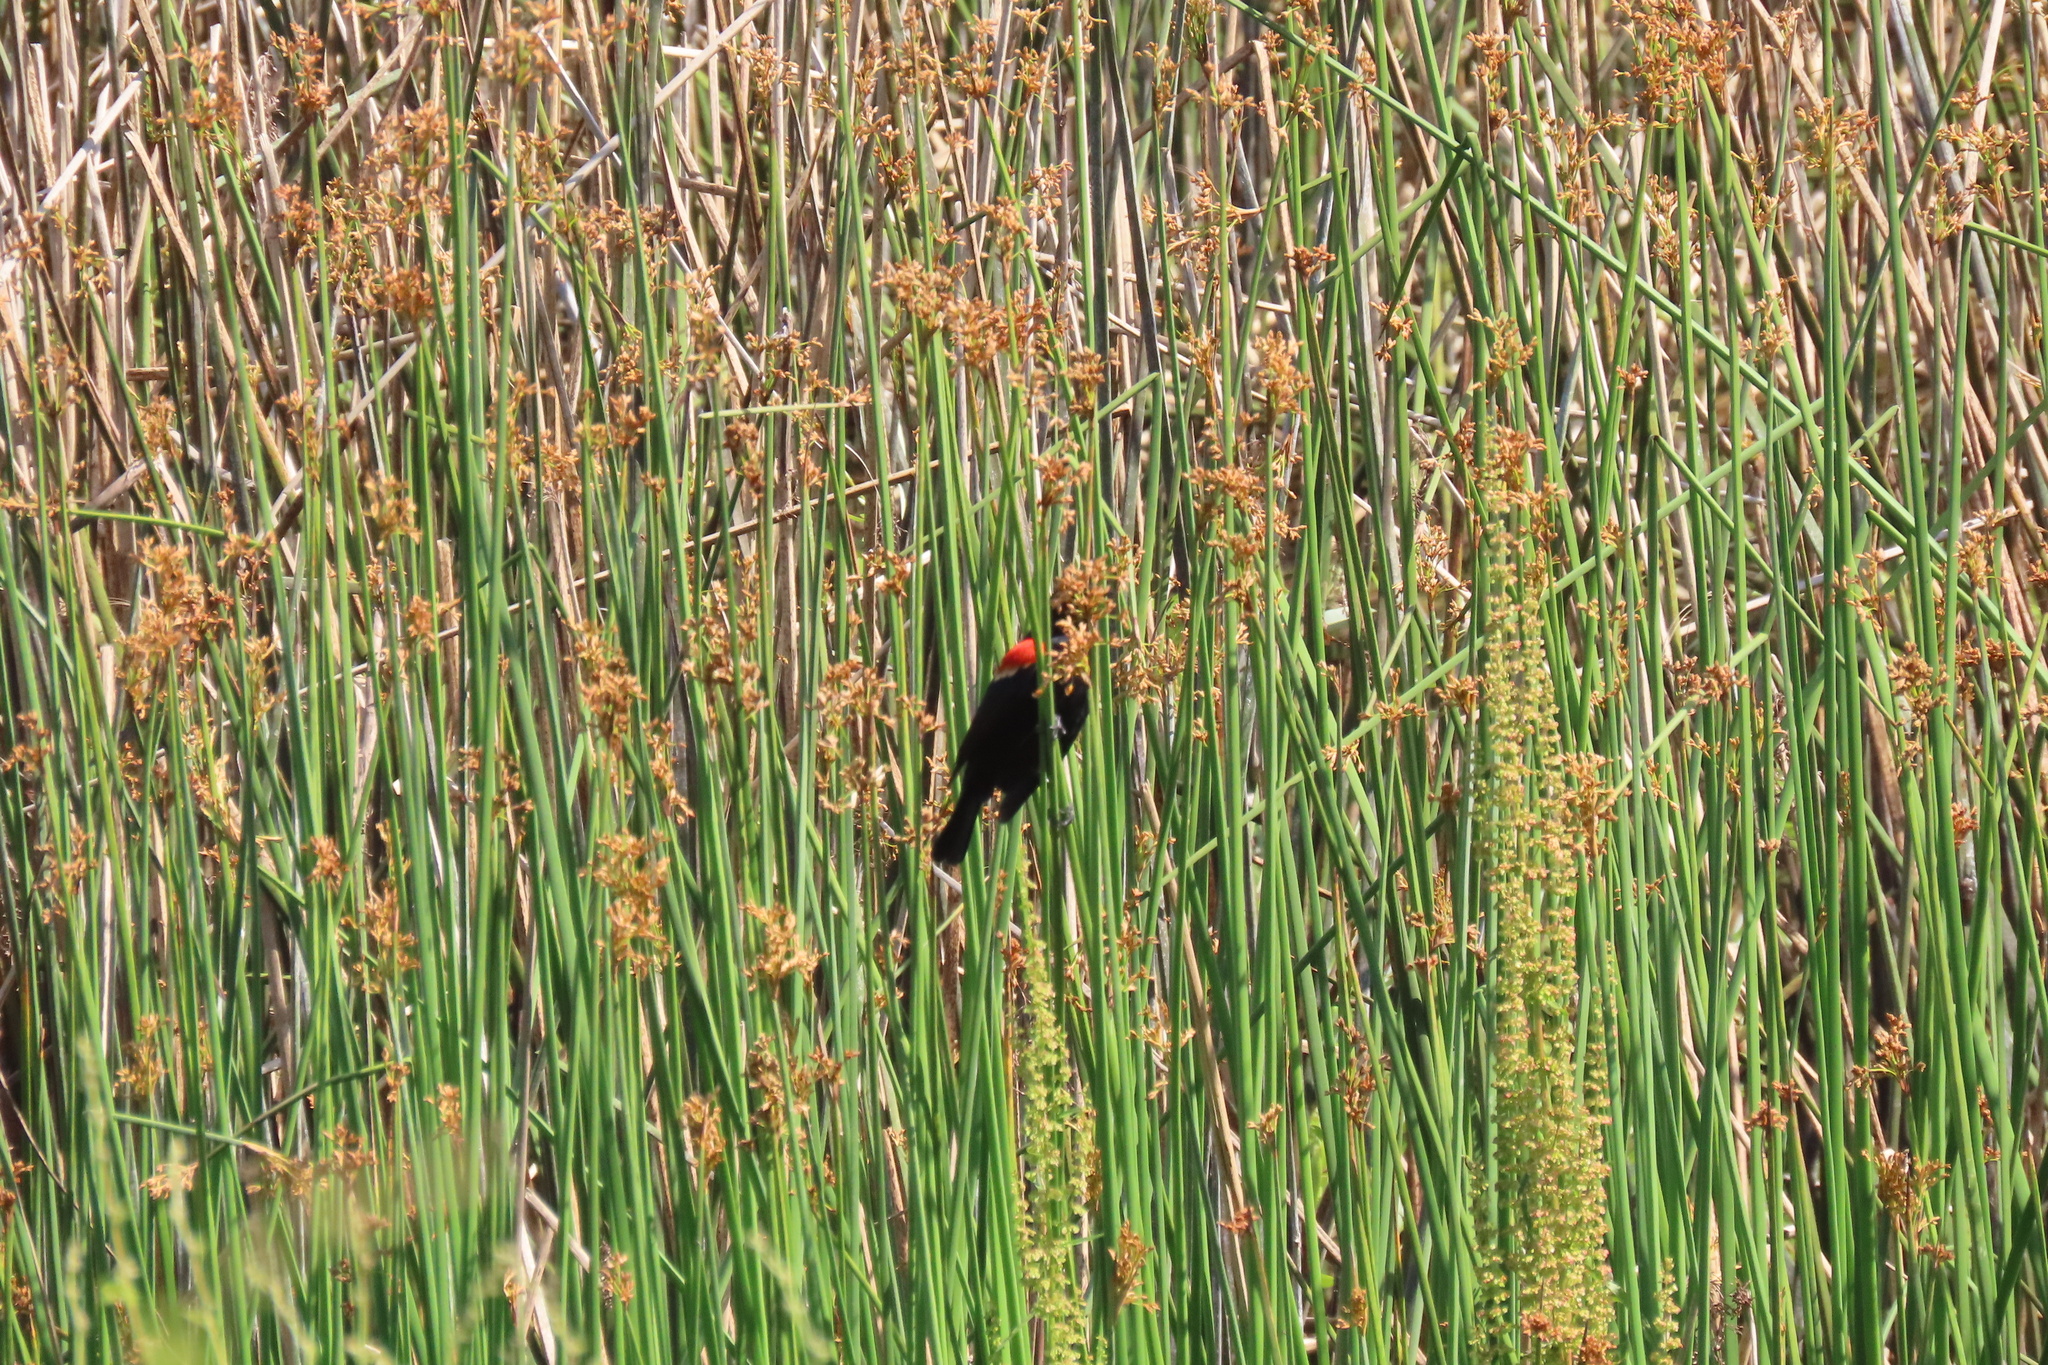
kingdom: Animalia
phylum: Chordata
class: Aves
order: Passeriformes
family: Icteridae
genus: Agelaius
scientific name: Agelaius phoeniceus
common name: Red-winged blackbird
